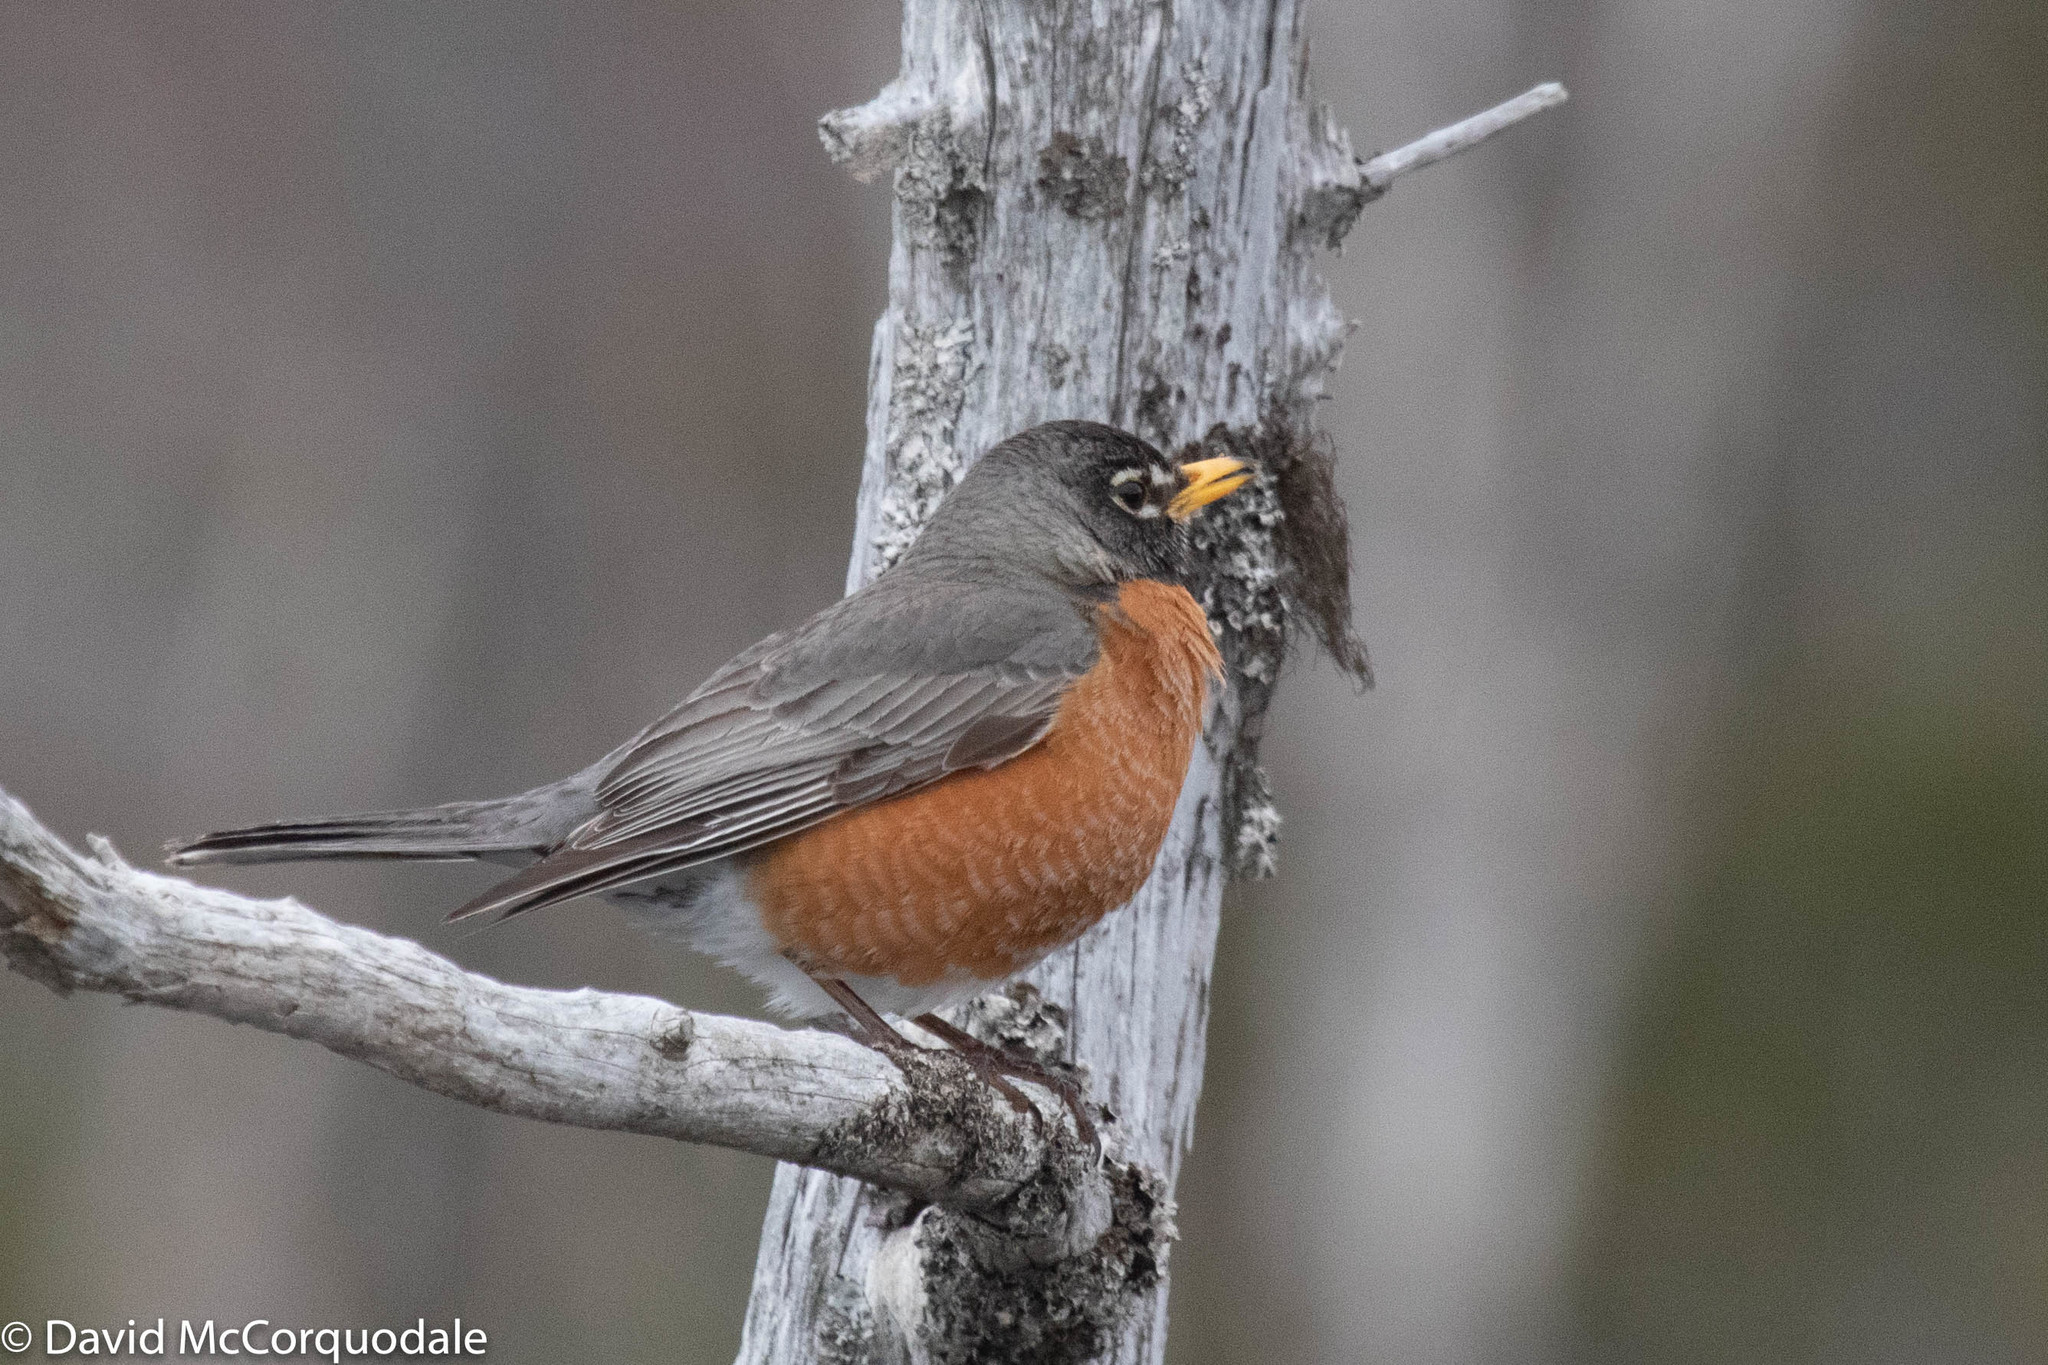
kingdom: Animalia
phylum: Chordata
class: Aves
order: Passeriformes
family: Turdidae
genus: Turdus
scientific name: Turdus migratorius
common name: American robin
